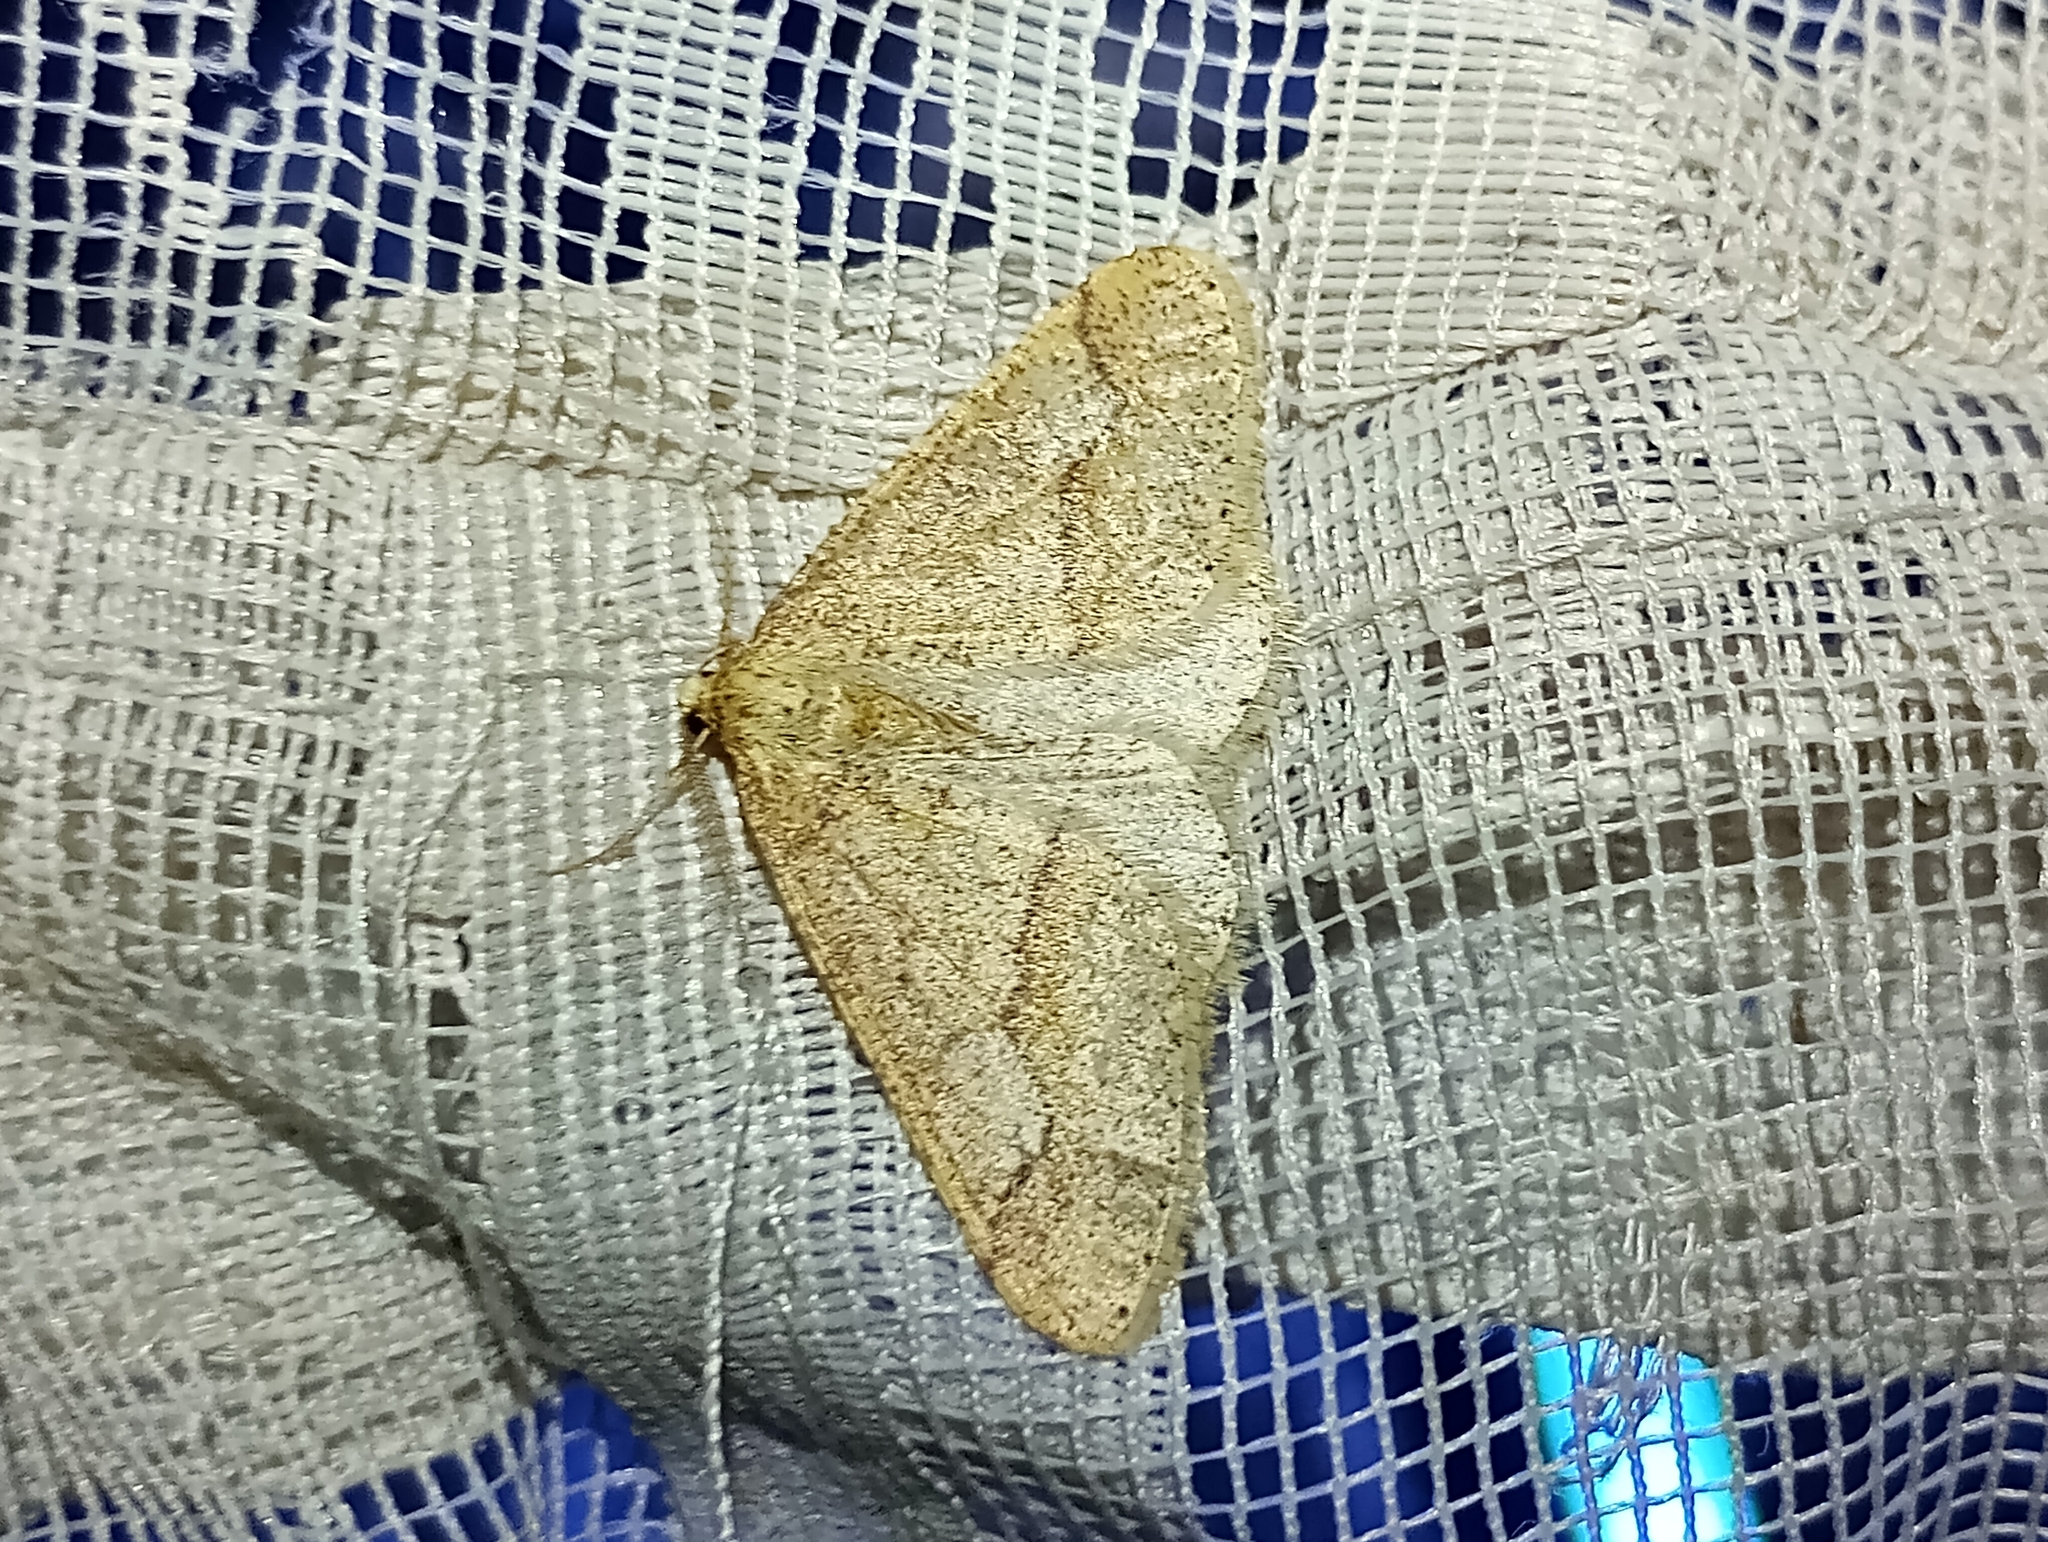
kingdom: Animalia
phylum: Arthropoda
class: Insecta
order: Lepidoptera
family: Geometridae
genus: Agriopis
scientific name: Agriopis marginaria
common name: Dotted border
